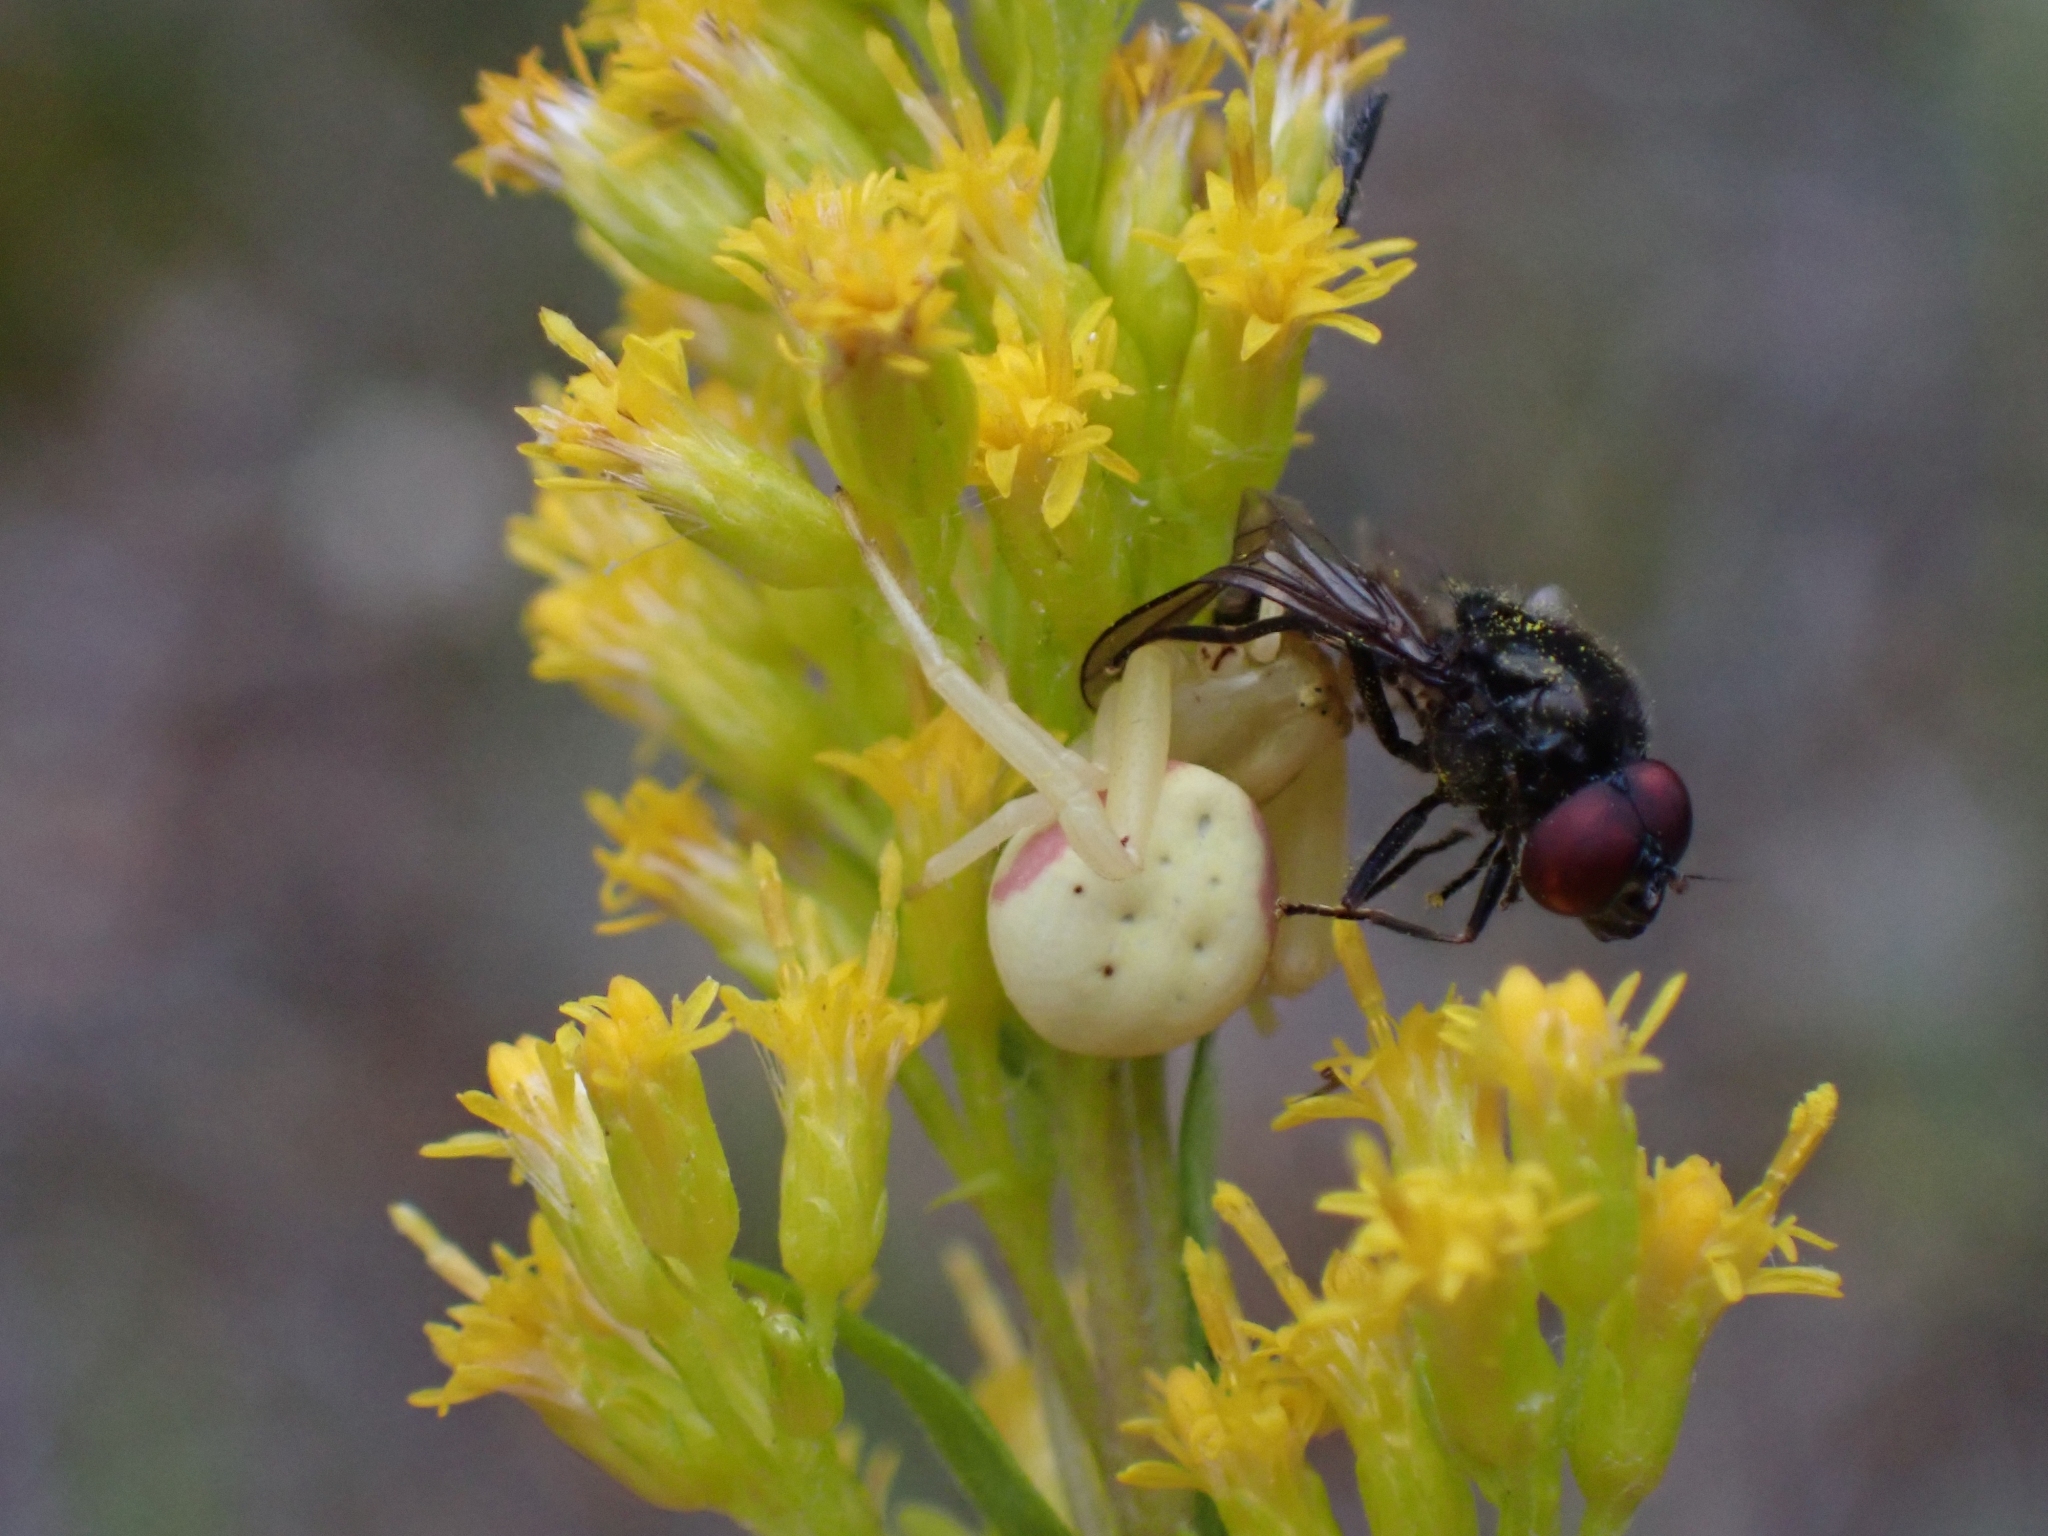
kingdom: Animalia
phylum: Arthropoda
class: Arachnida
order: Araneae
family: Thomisidae
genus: Misumena
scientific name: Misumena vatia
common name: Goldenrod crab spider
